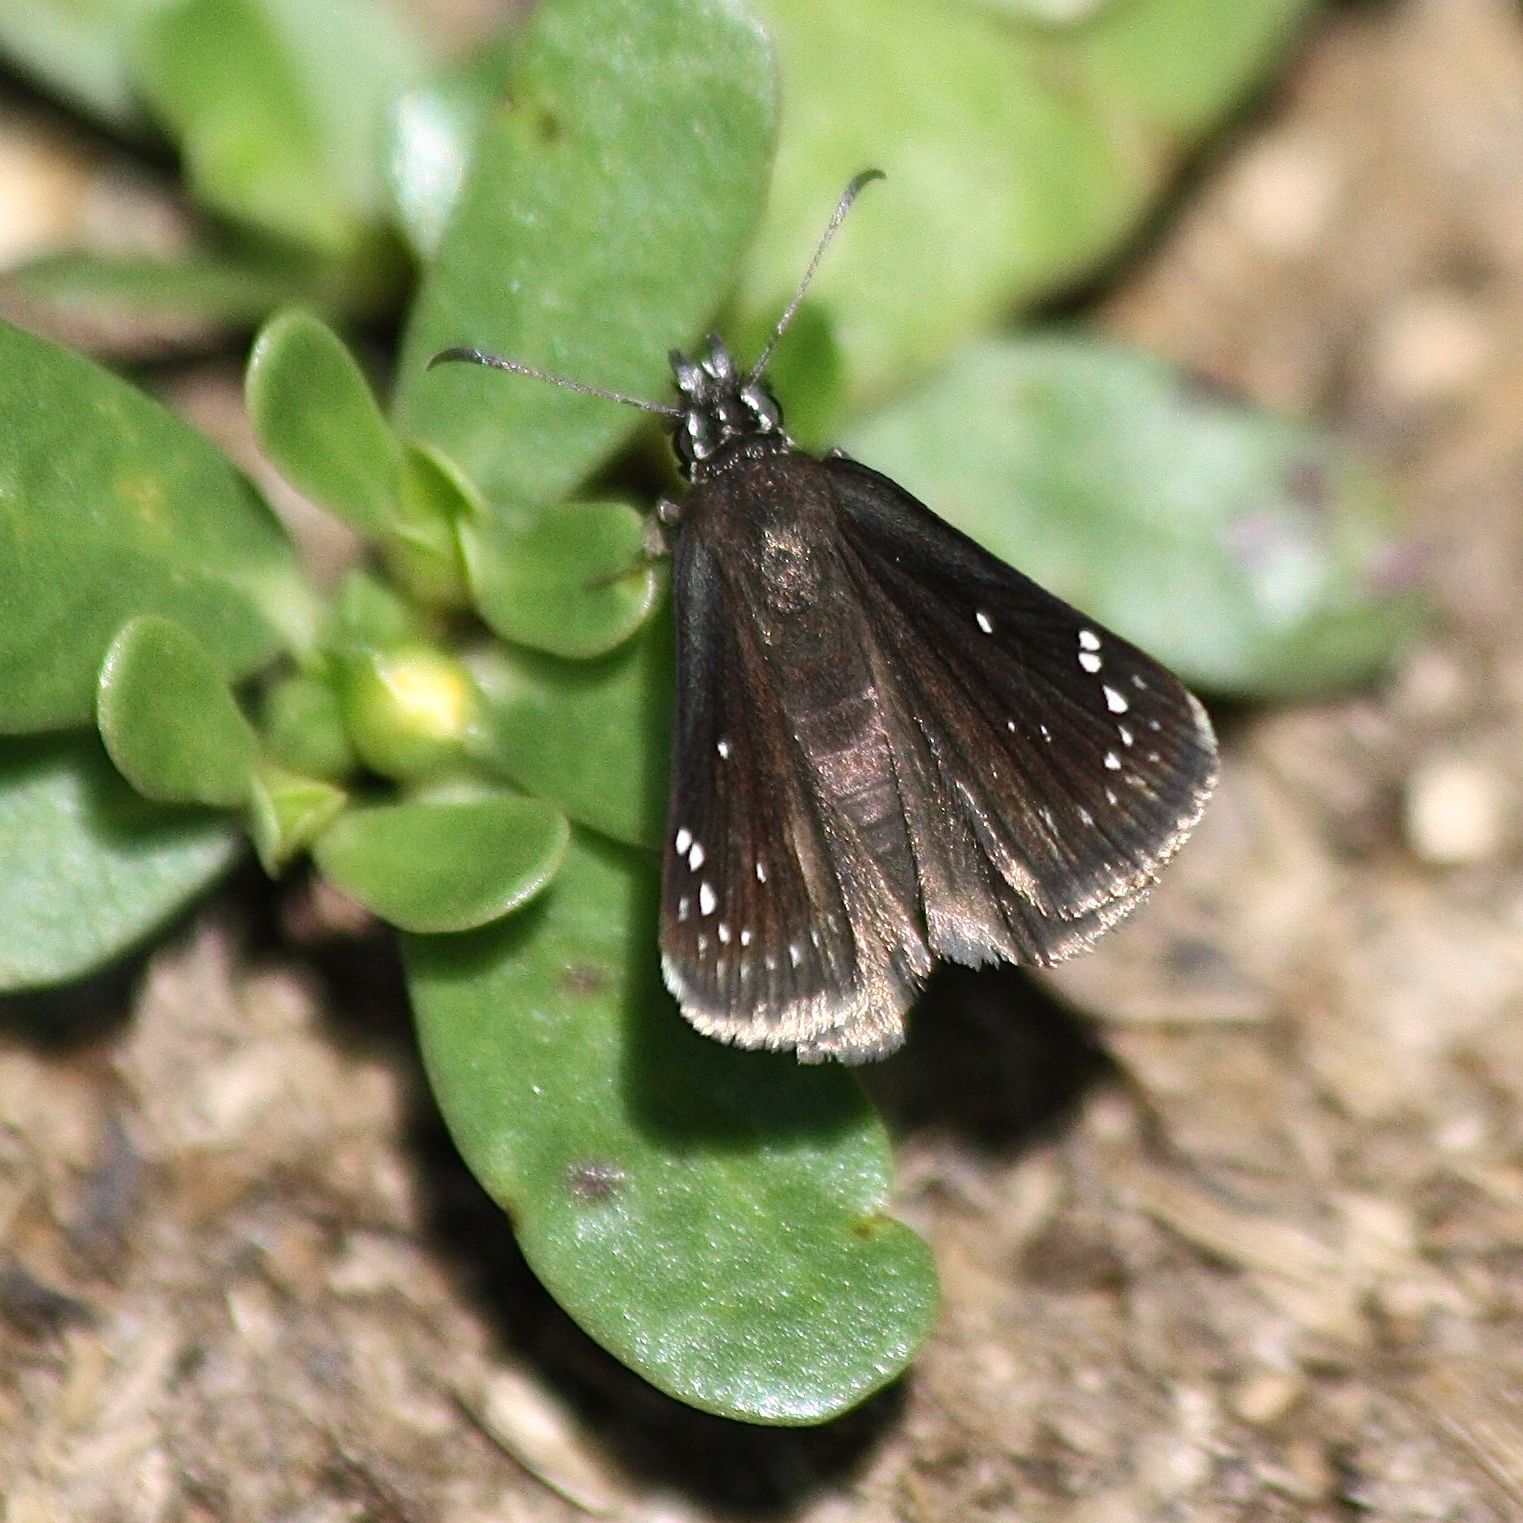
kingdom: Animalia
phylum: Arthropoda
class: Insecta
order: Lepidoptera
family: Hesperiidae
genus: Pholisora
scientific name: Pholisora catullus
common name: Common sootywing
